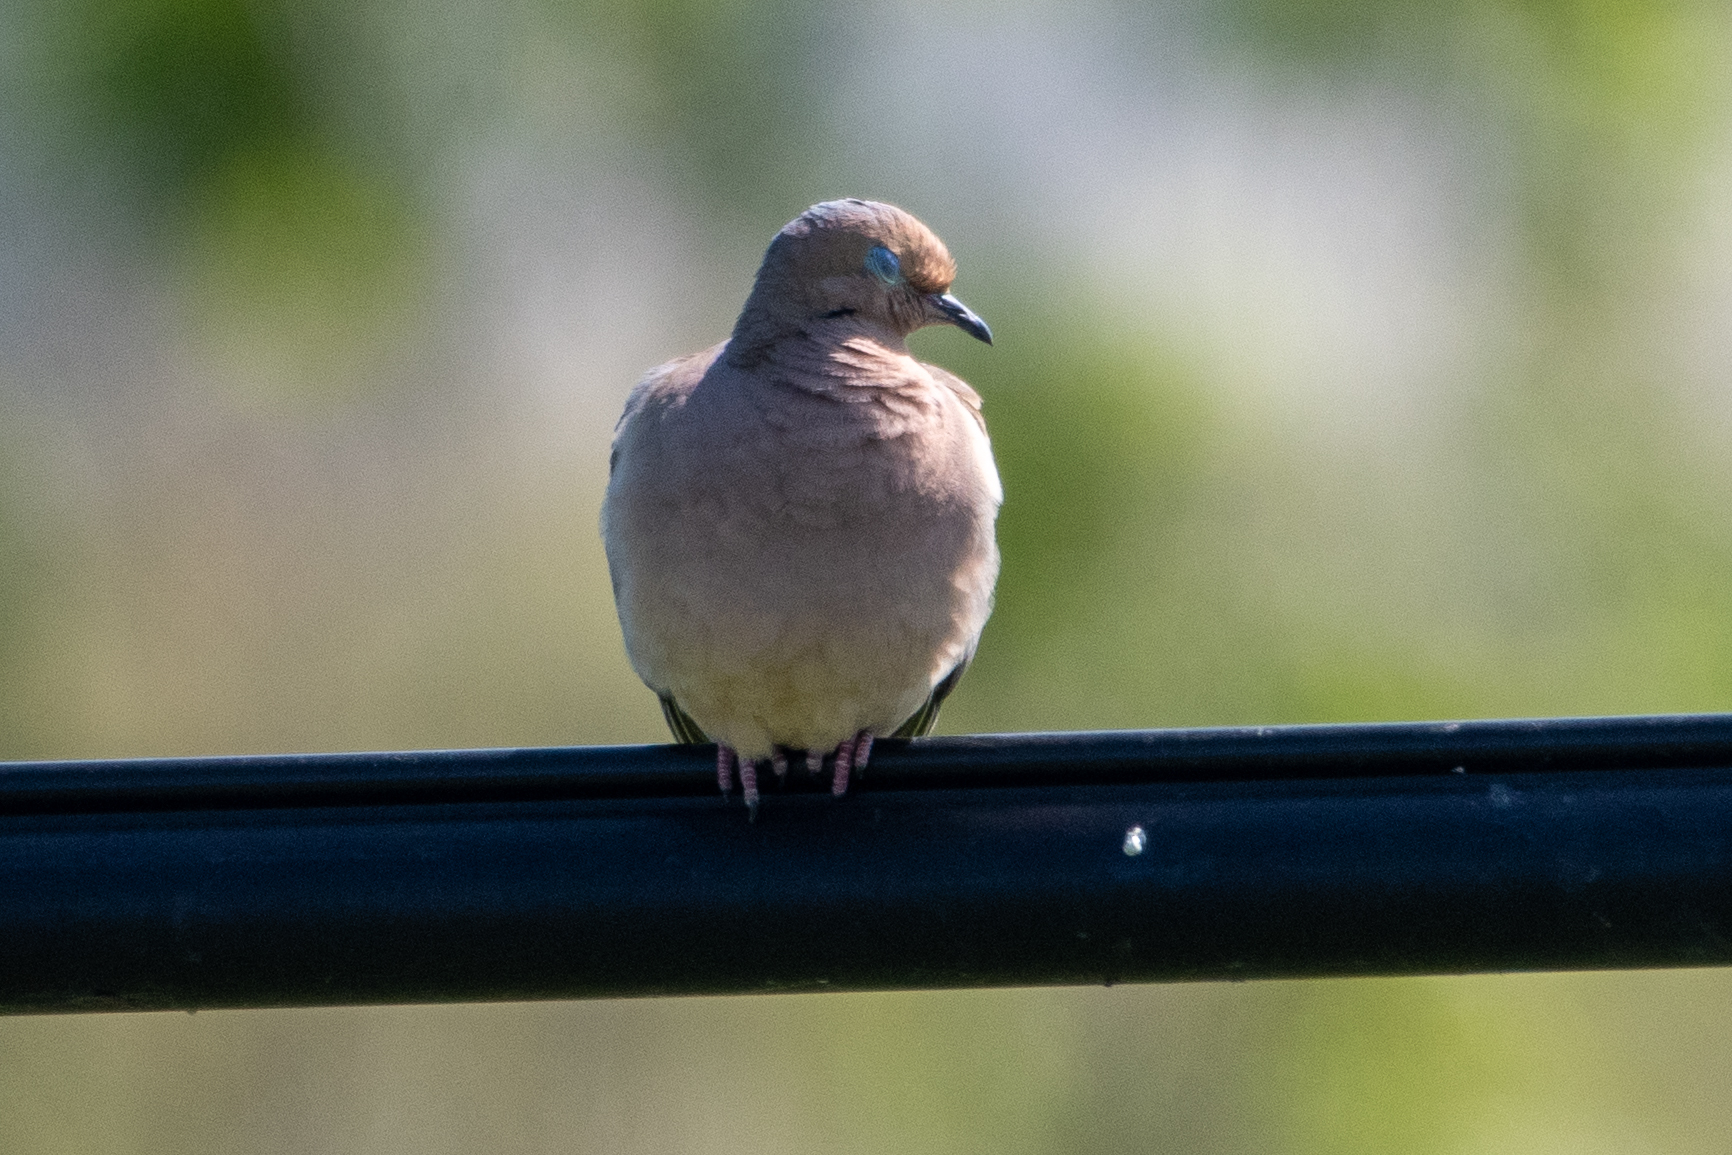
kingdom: Animalia
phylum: Chordata
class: Aves
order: Columbiformes
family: Columbidae
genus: Zenaida
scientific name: Zenaida macroura
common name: Mourning dove
